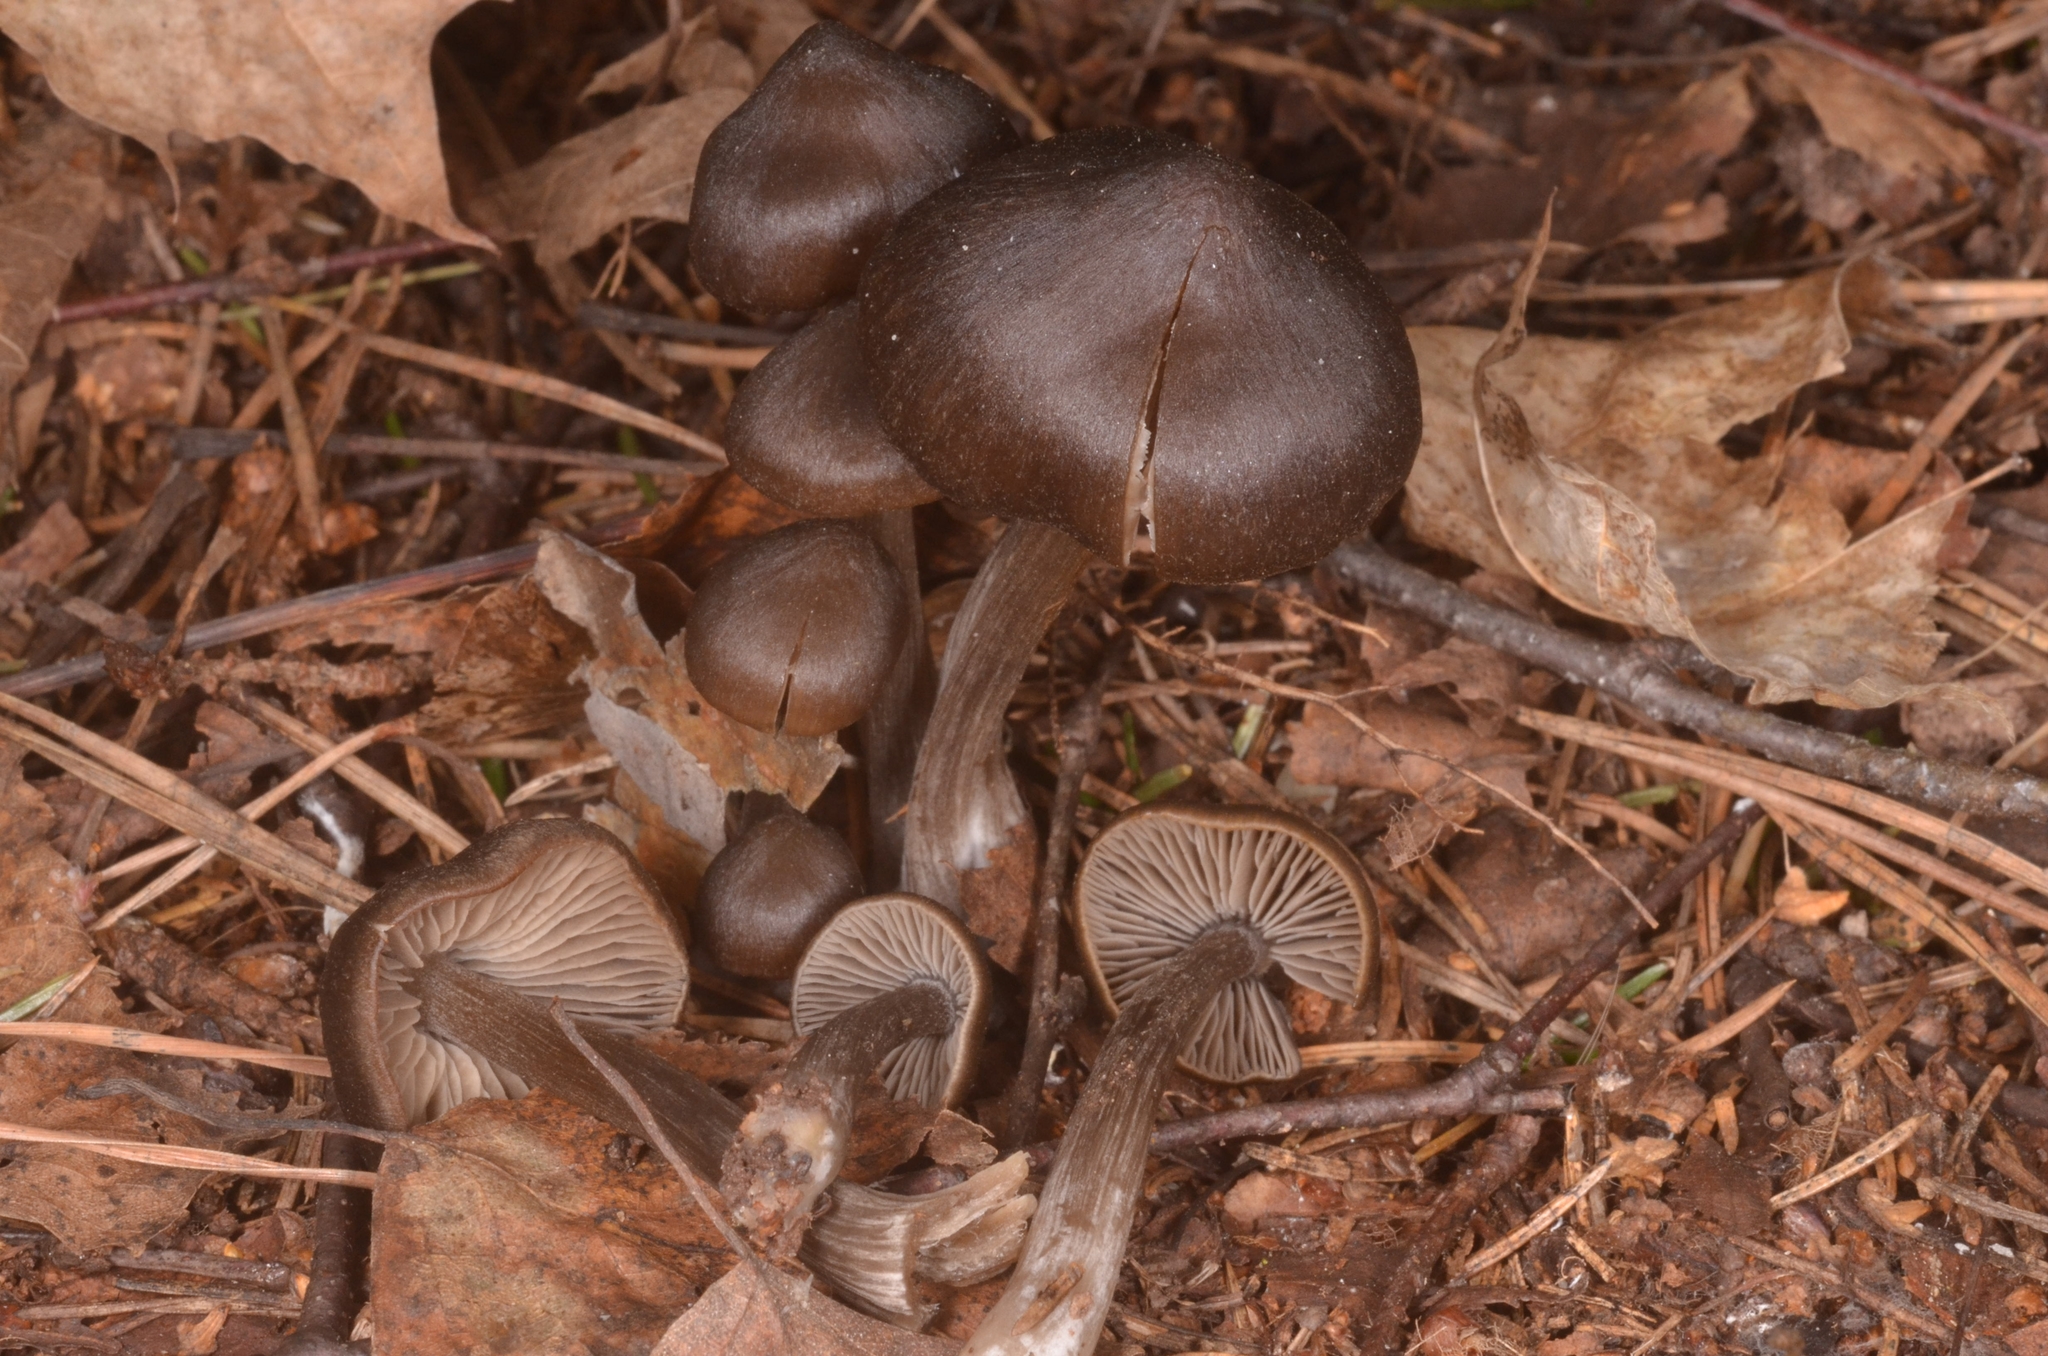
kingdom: Fungi
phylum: Basidiomycota
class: Agaricomycetes
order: Agaricales
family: Entolomataceae
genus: Entoloma
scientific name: Entoloma vernum
